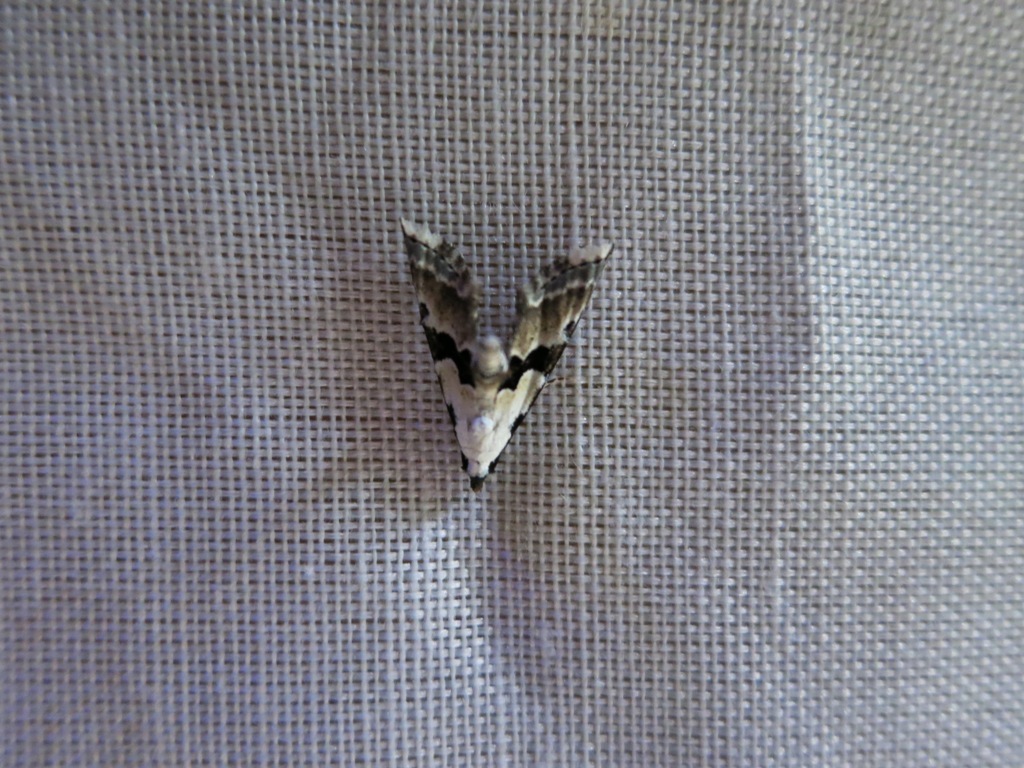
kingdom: Animalia
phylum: Arthropoda
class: Insecta
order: Lepidoptera
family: Noctuidae
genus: Nigetia
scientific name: Nigetia formosalis
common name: Thin-winged owlet
